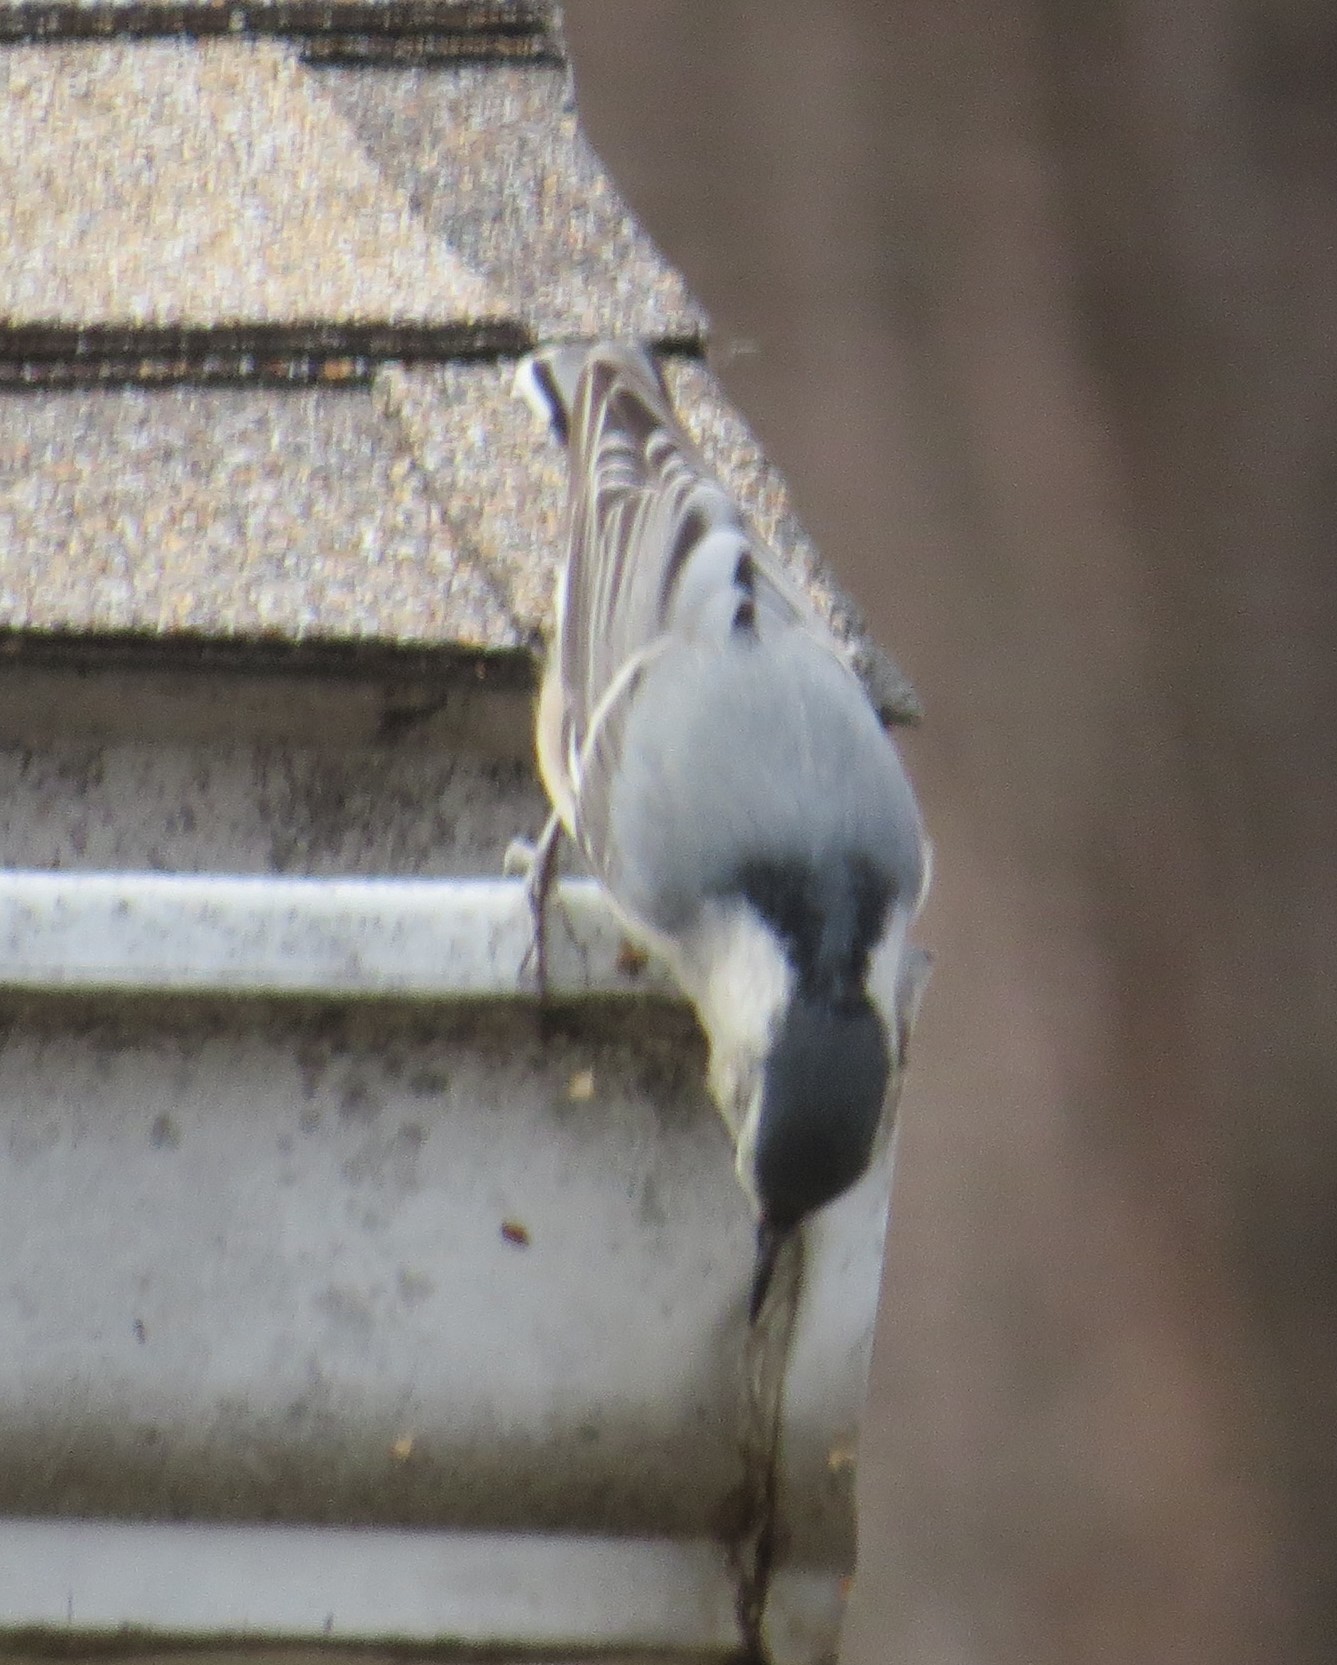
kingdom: Animalia
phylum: Chordata
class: Aves
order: Passeriformes
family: Sittidae
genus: Sitta
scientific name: Sitta carolinensis
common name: White-breasted nuthatch
